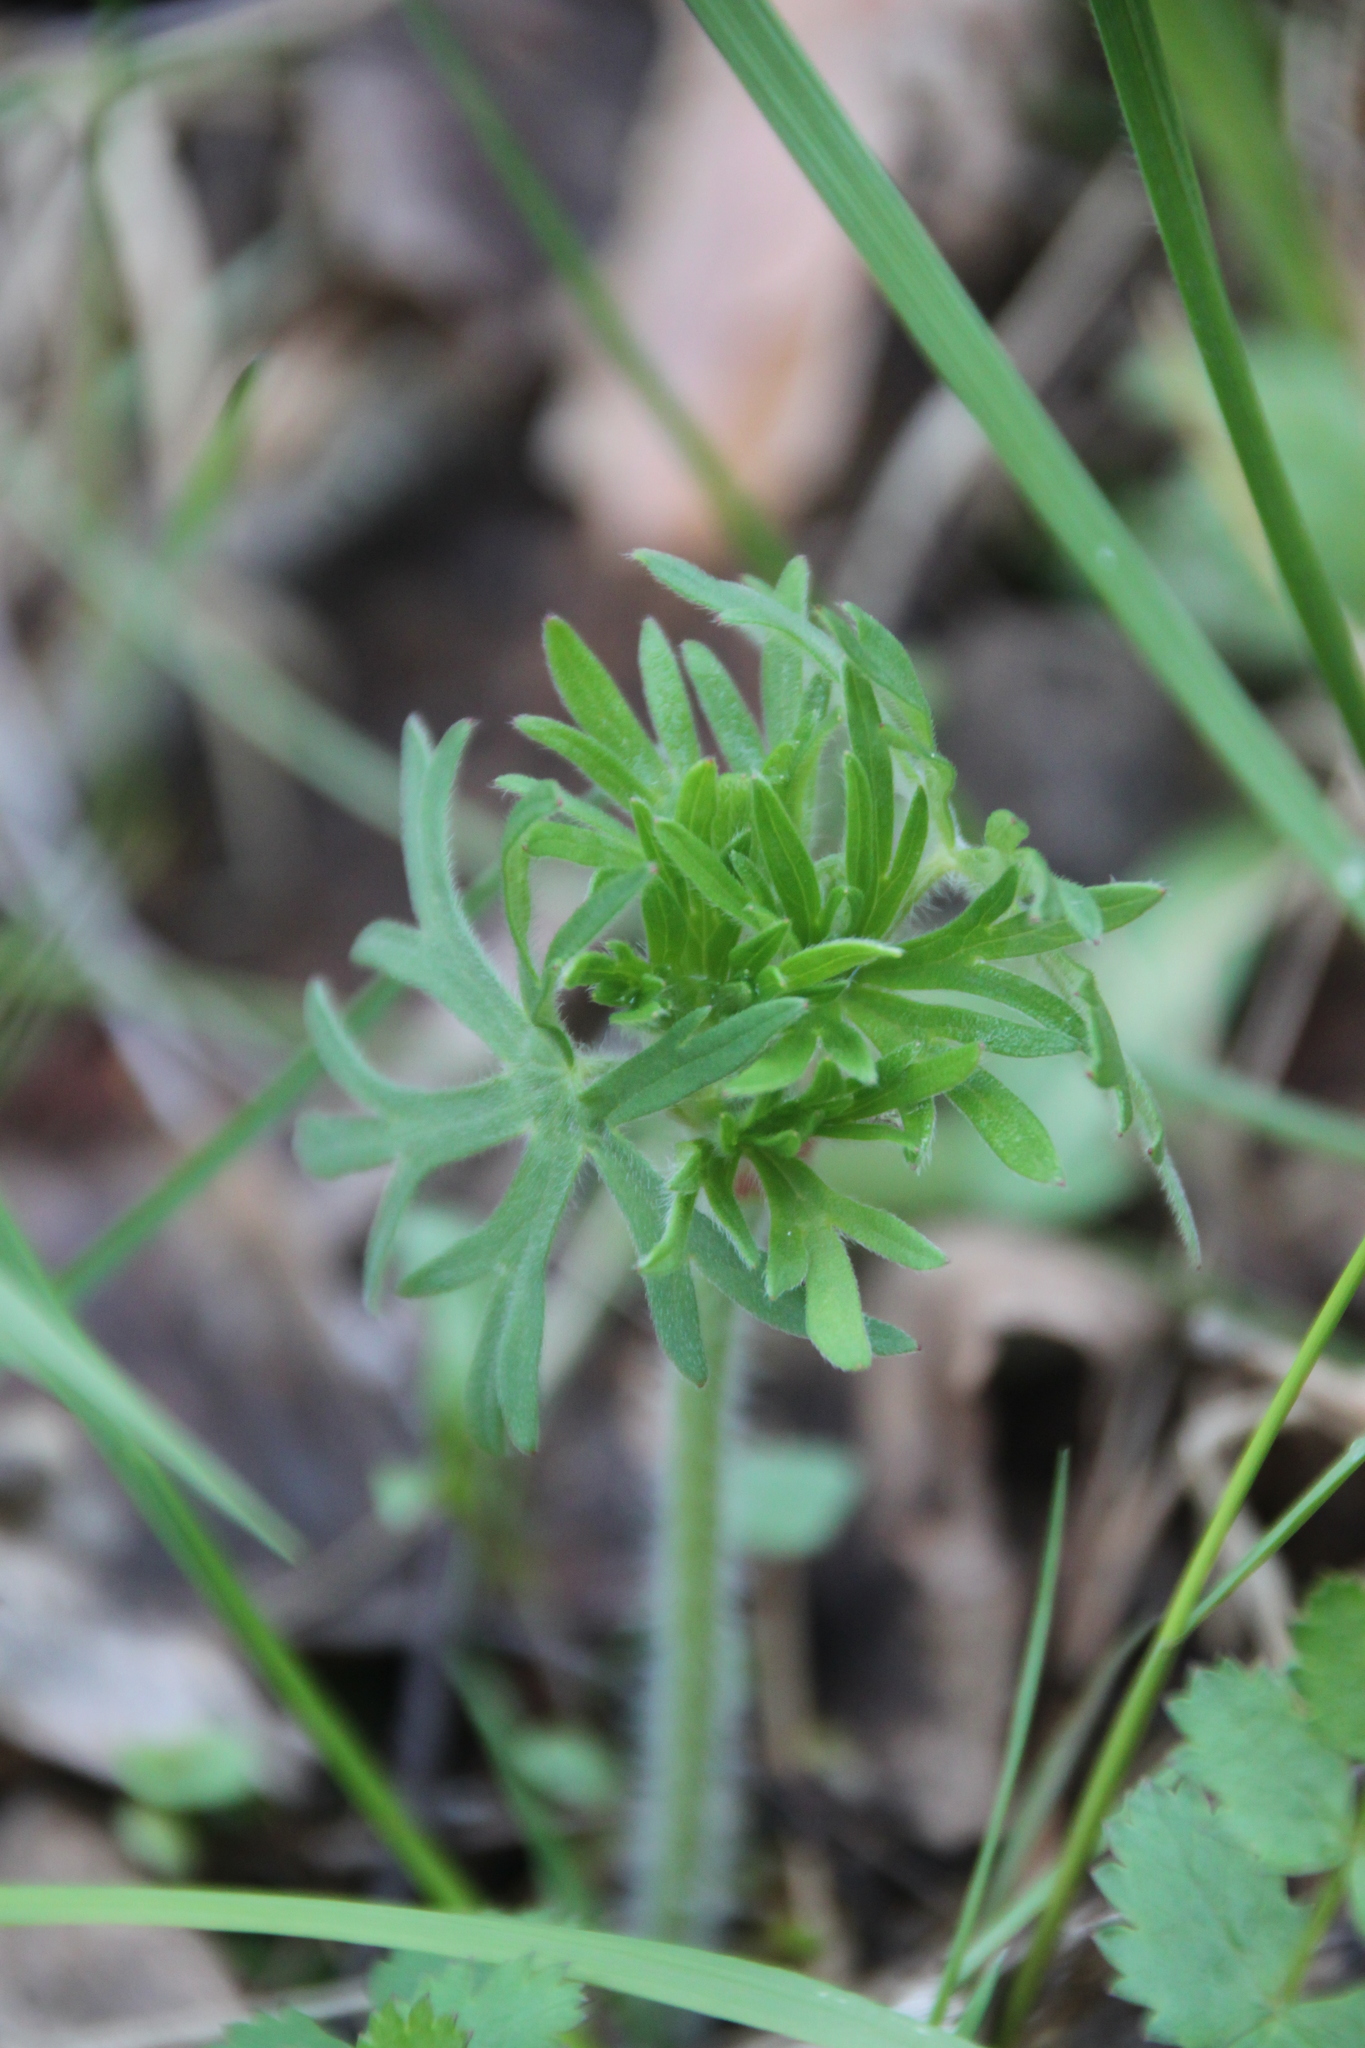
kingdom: Plantae
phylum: Tracheophyta
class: Magnoliopsida
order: Ranunculales
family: Ranunculaceae
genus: Ranunculus
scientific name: Ranunculus polyanthemos
